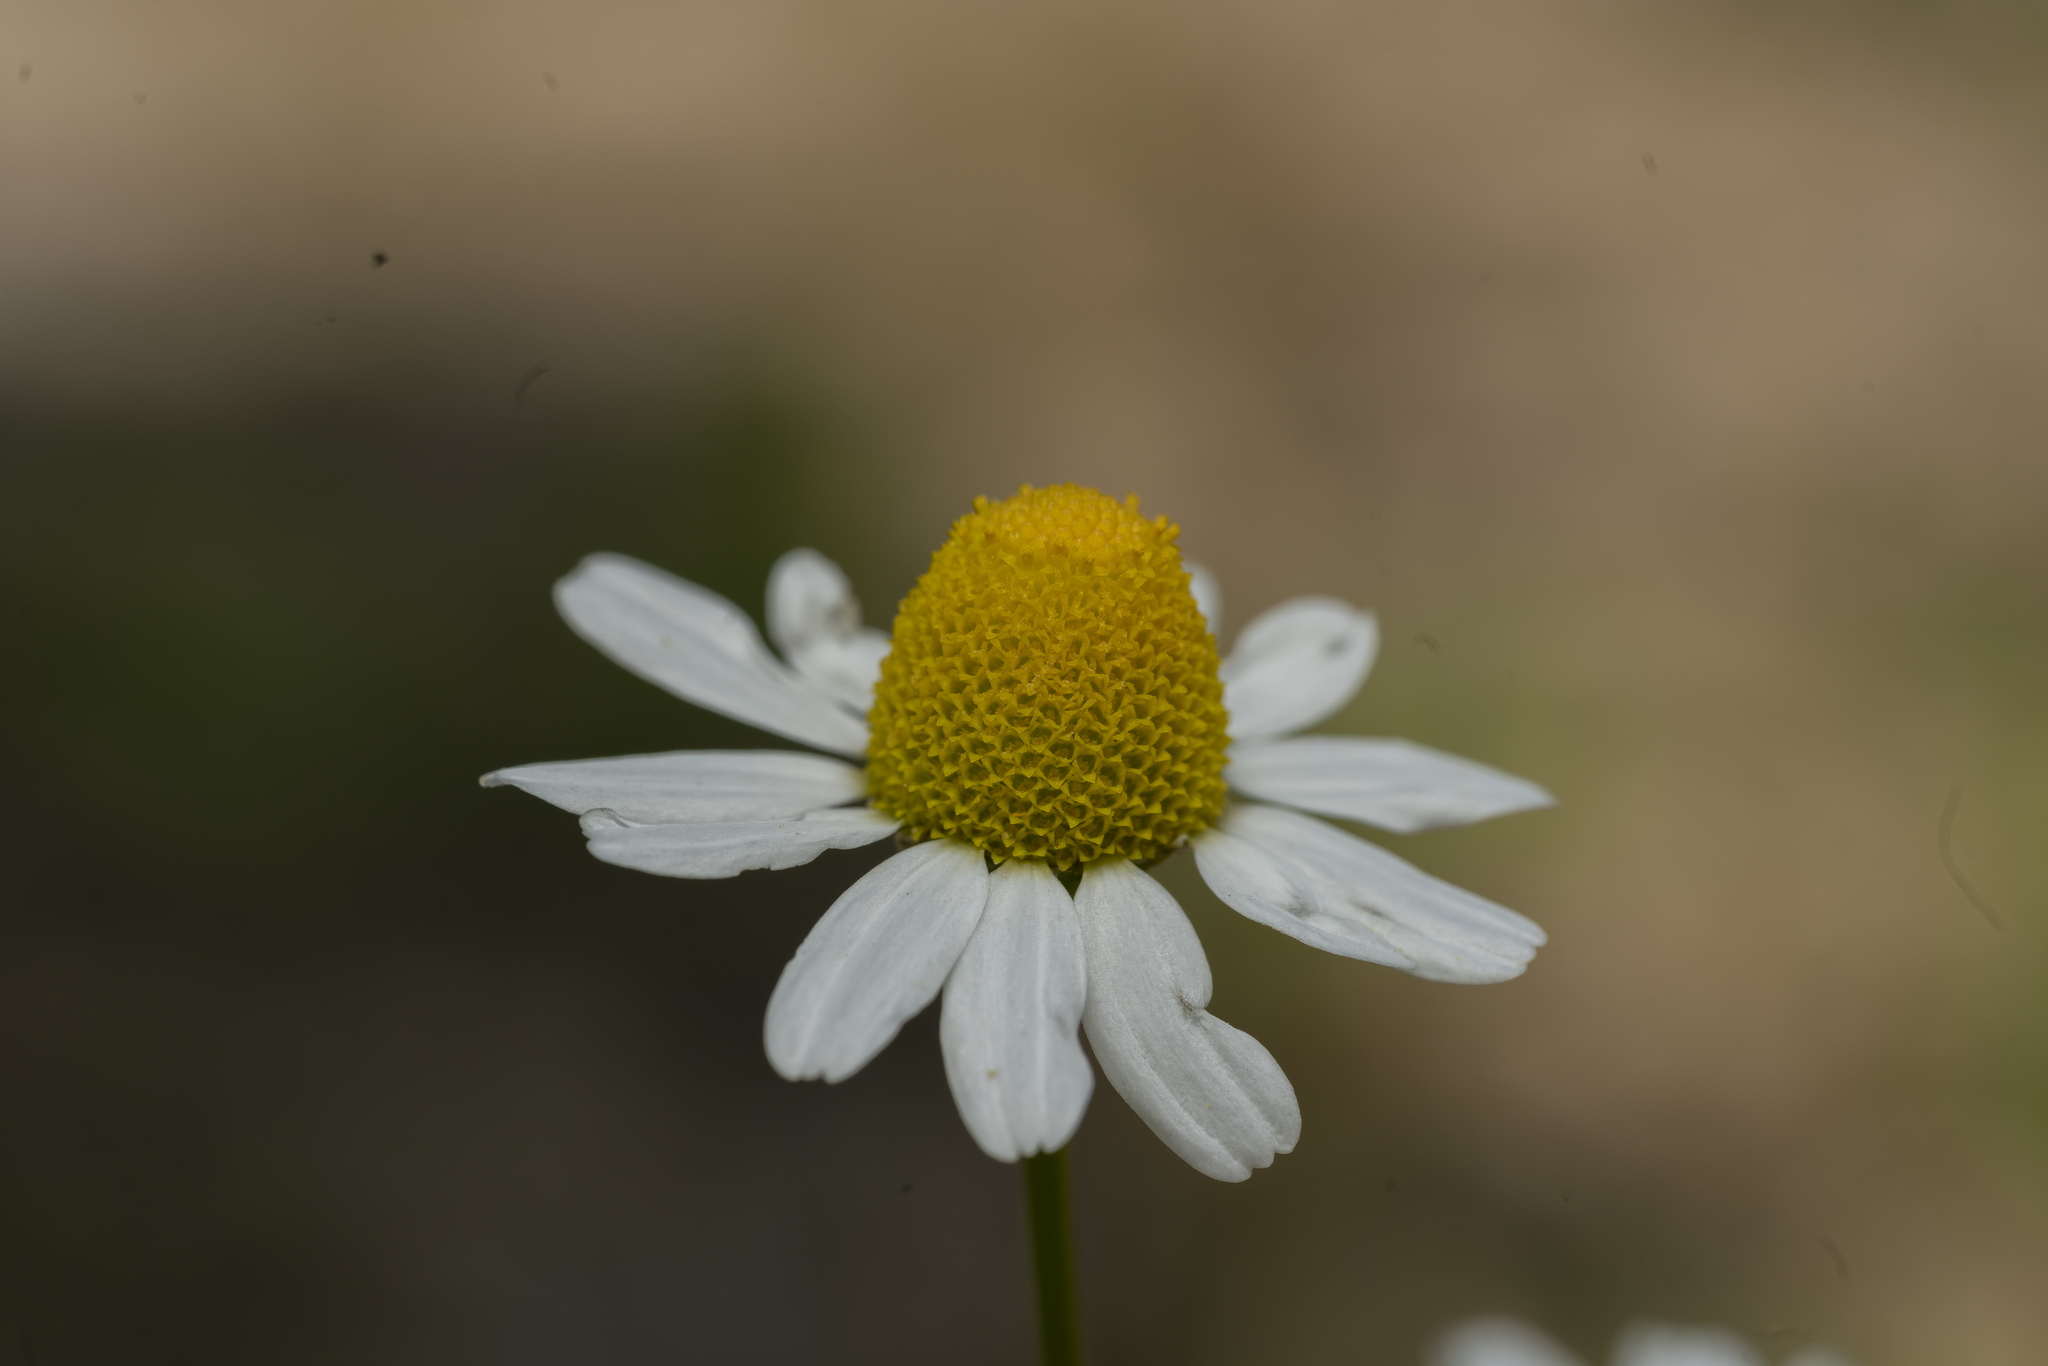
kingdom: Plantae
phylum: Tracheophyta
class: Magnoliopsida
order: Asterales
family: Asteraceae
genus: Matricaria
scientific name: Matricaria chamomilla
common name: Scented mayweed
